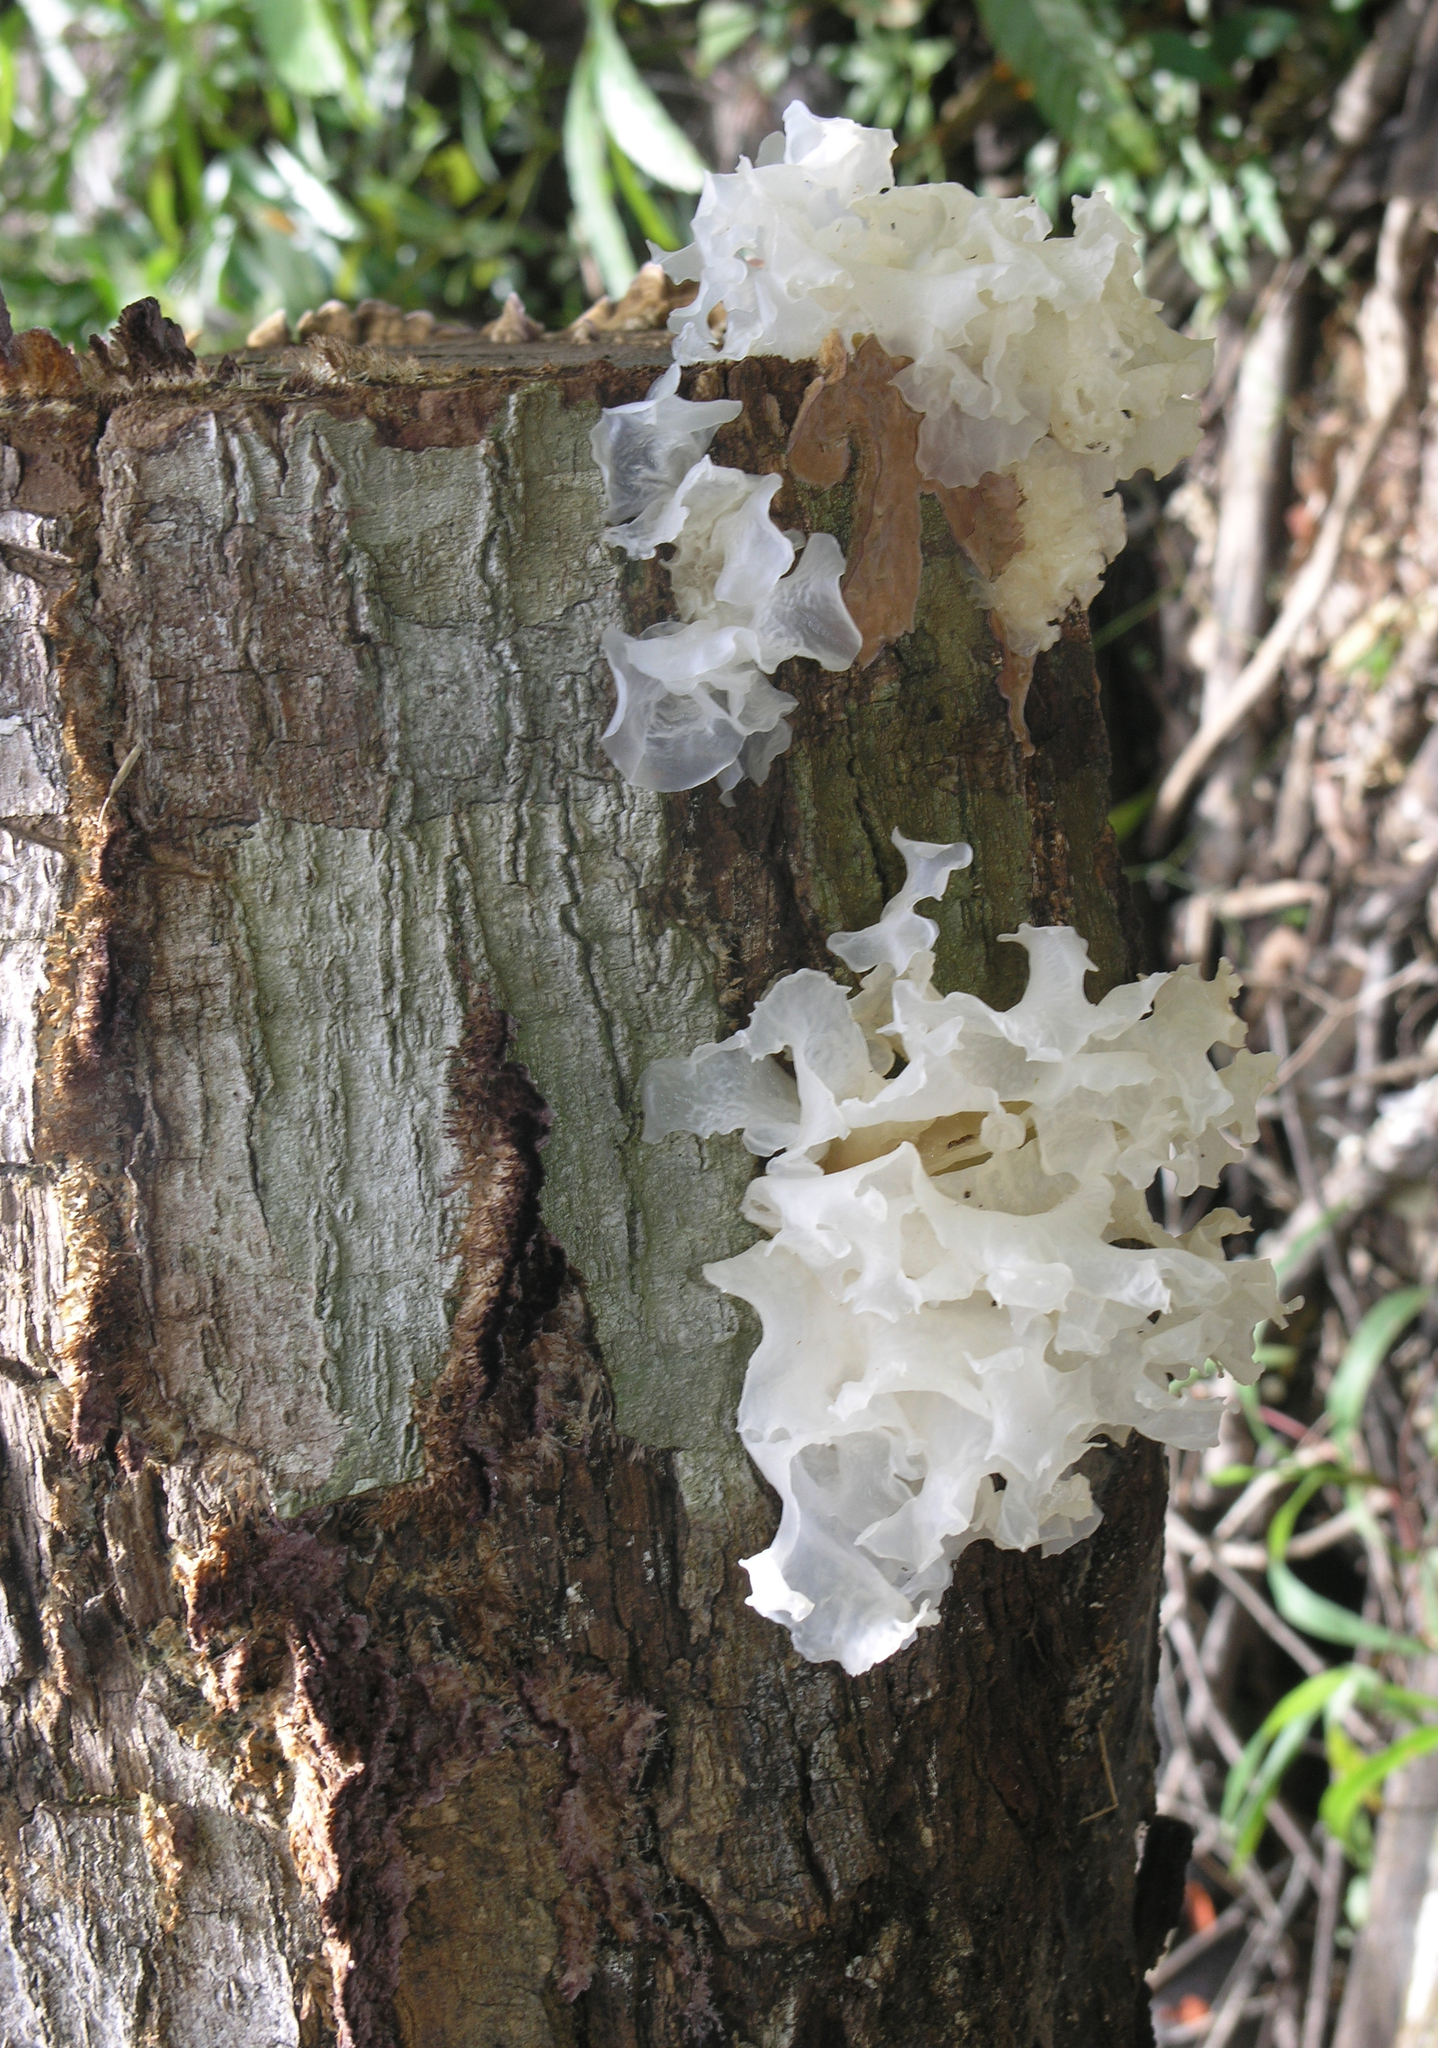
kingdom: Fungi
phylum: Basidiomycota
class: Tremellomycetes
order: Tremellales
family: Tremellaceae
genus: Tremella
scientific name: Tremella fuciformis
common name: Snow fungus
